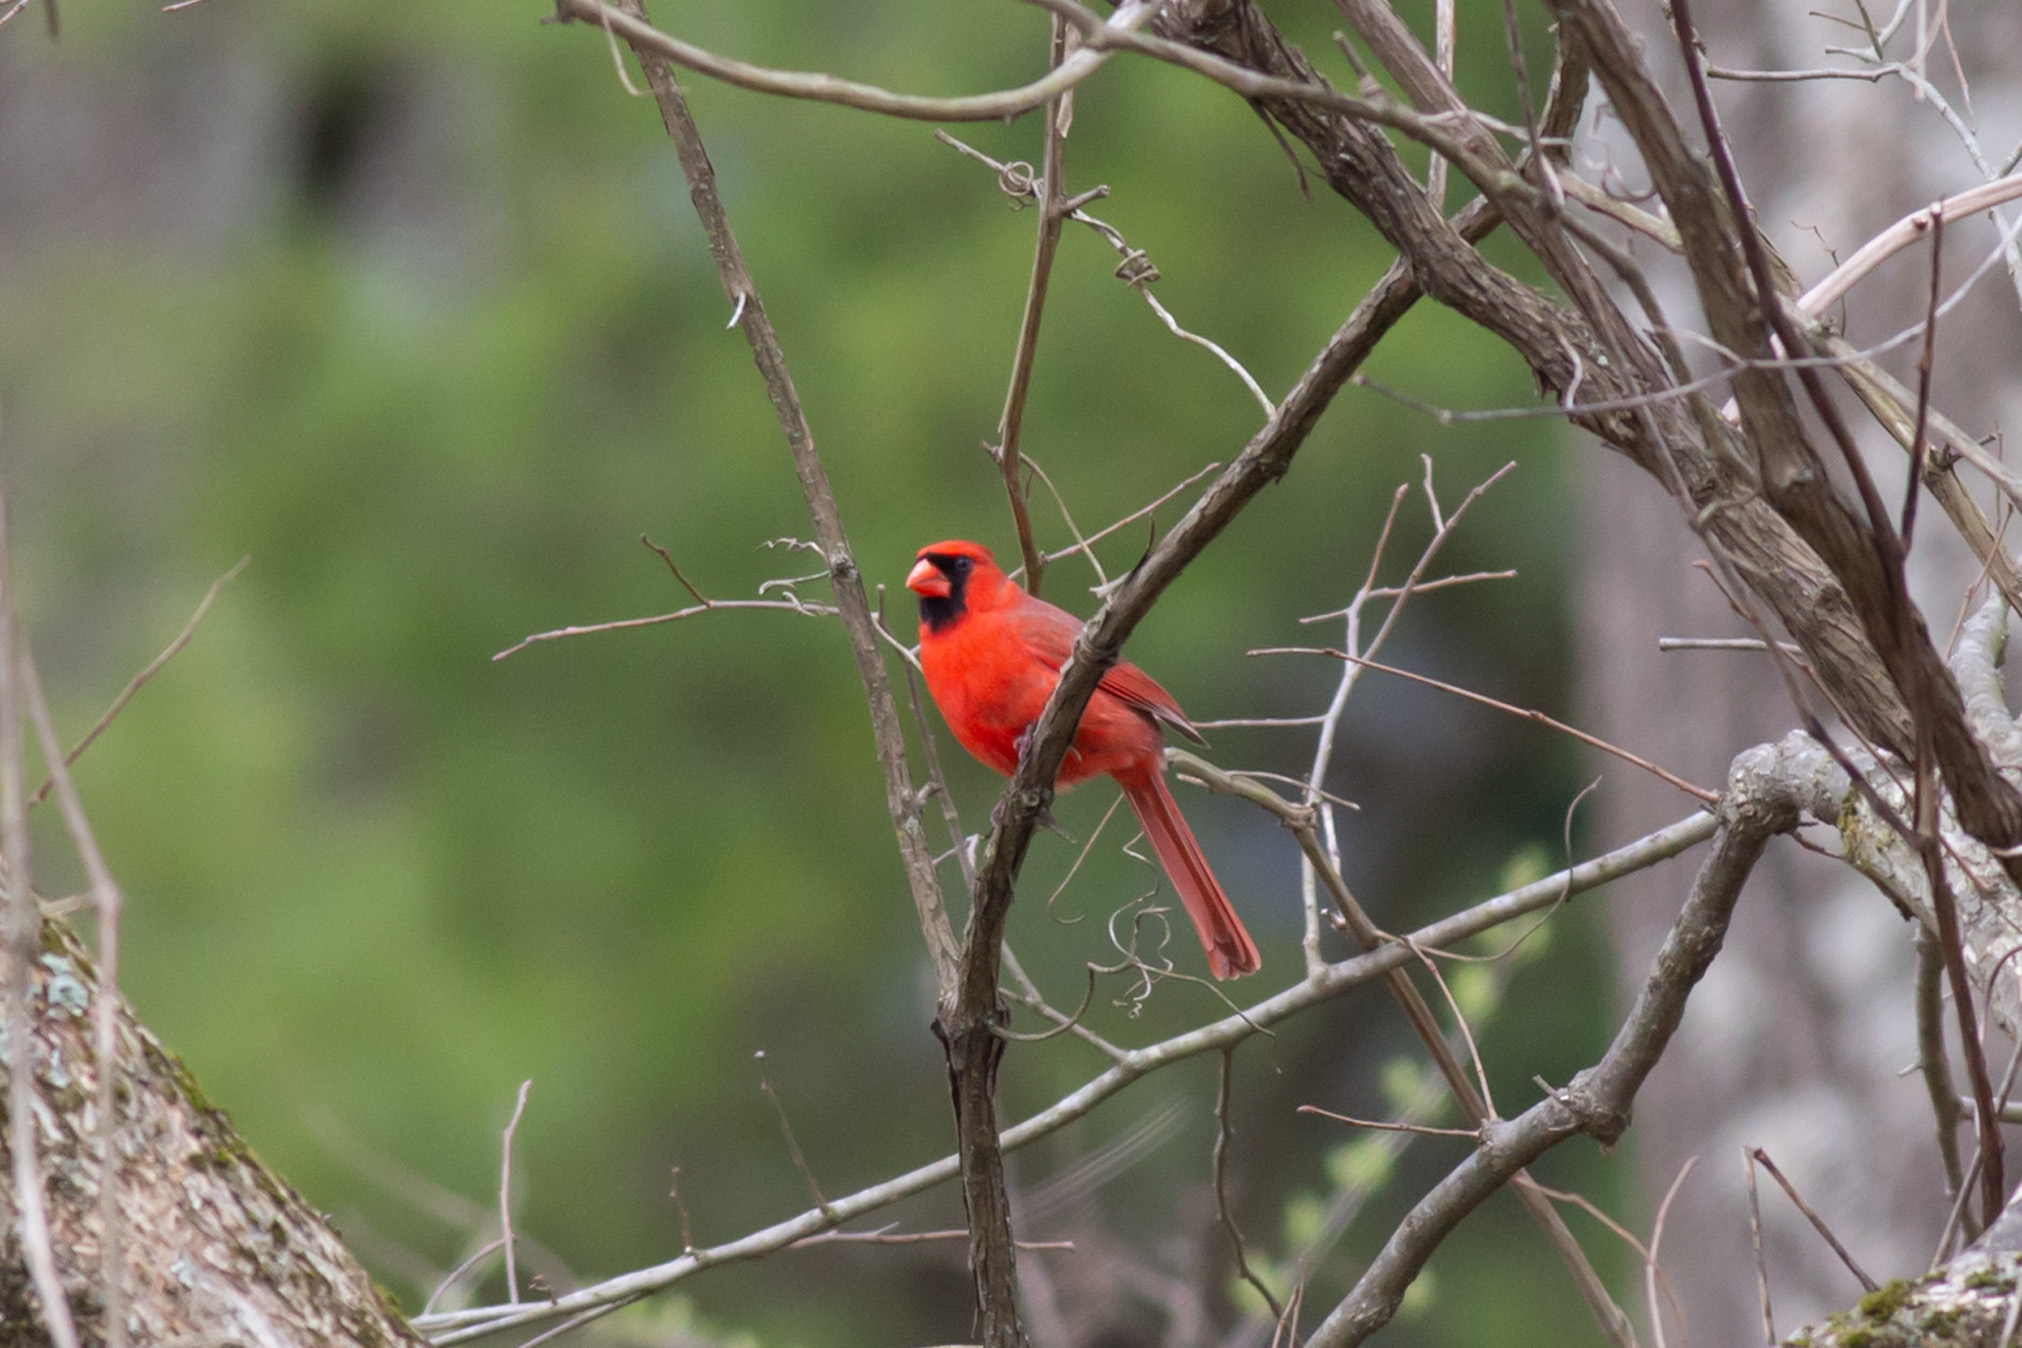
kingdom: Animalia
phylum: Chordata
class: Aves
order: Passeriformes
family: Cardinalidae
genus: Cardinalis
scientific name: Cardinalis cardinalis
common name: Northern cardinal
